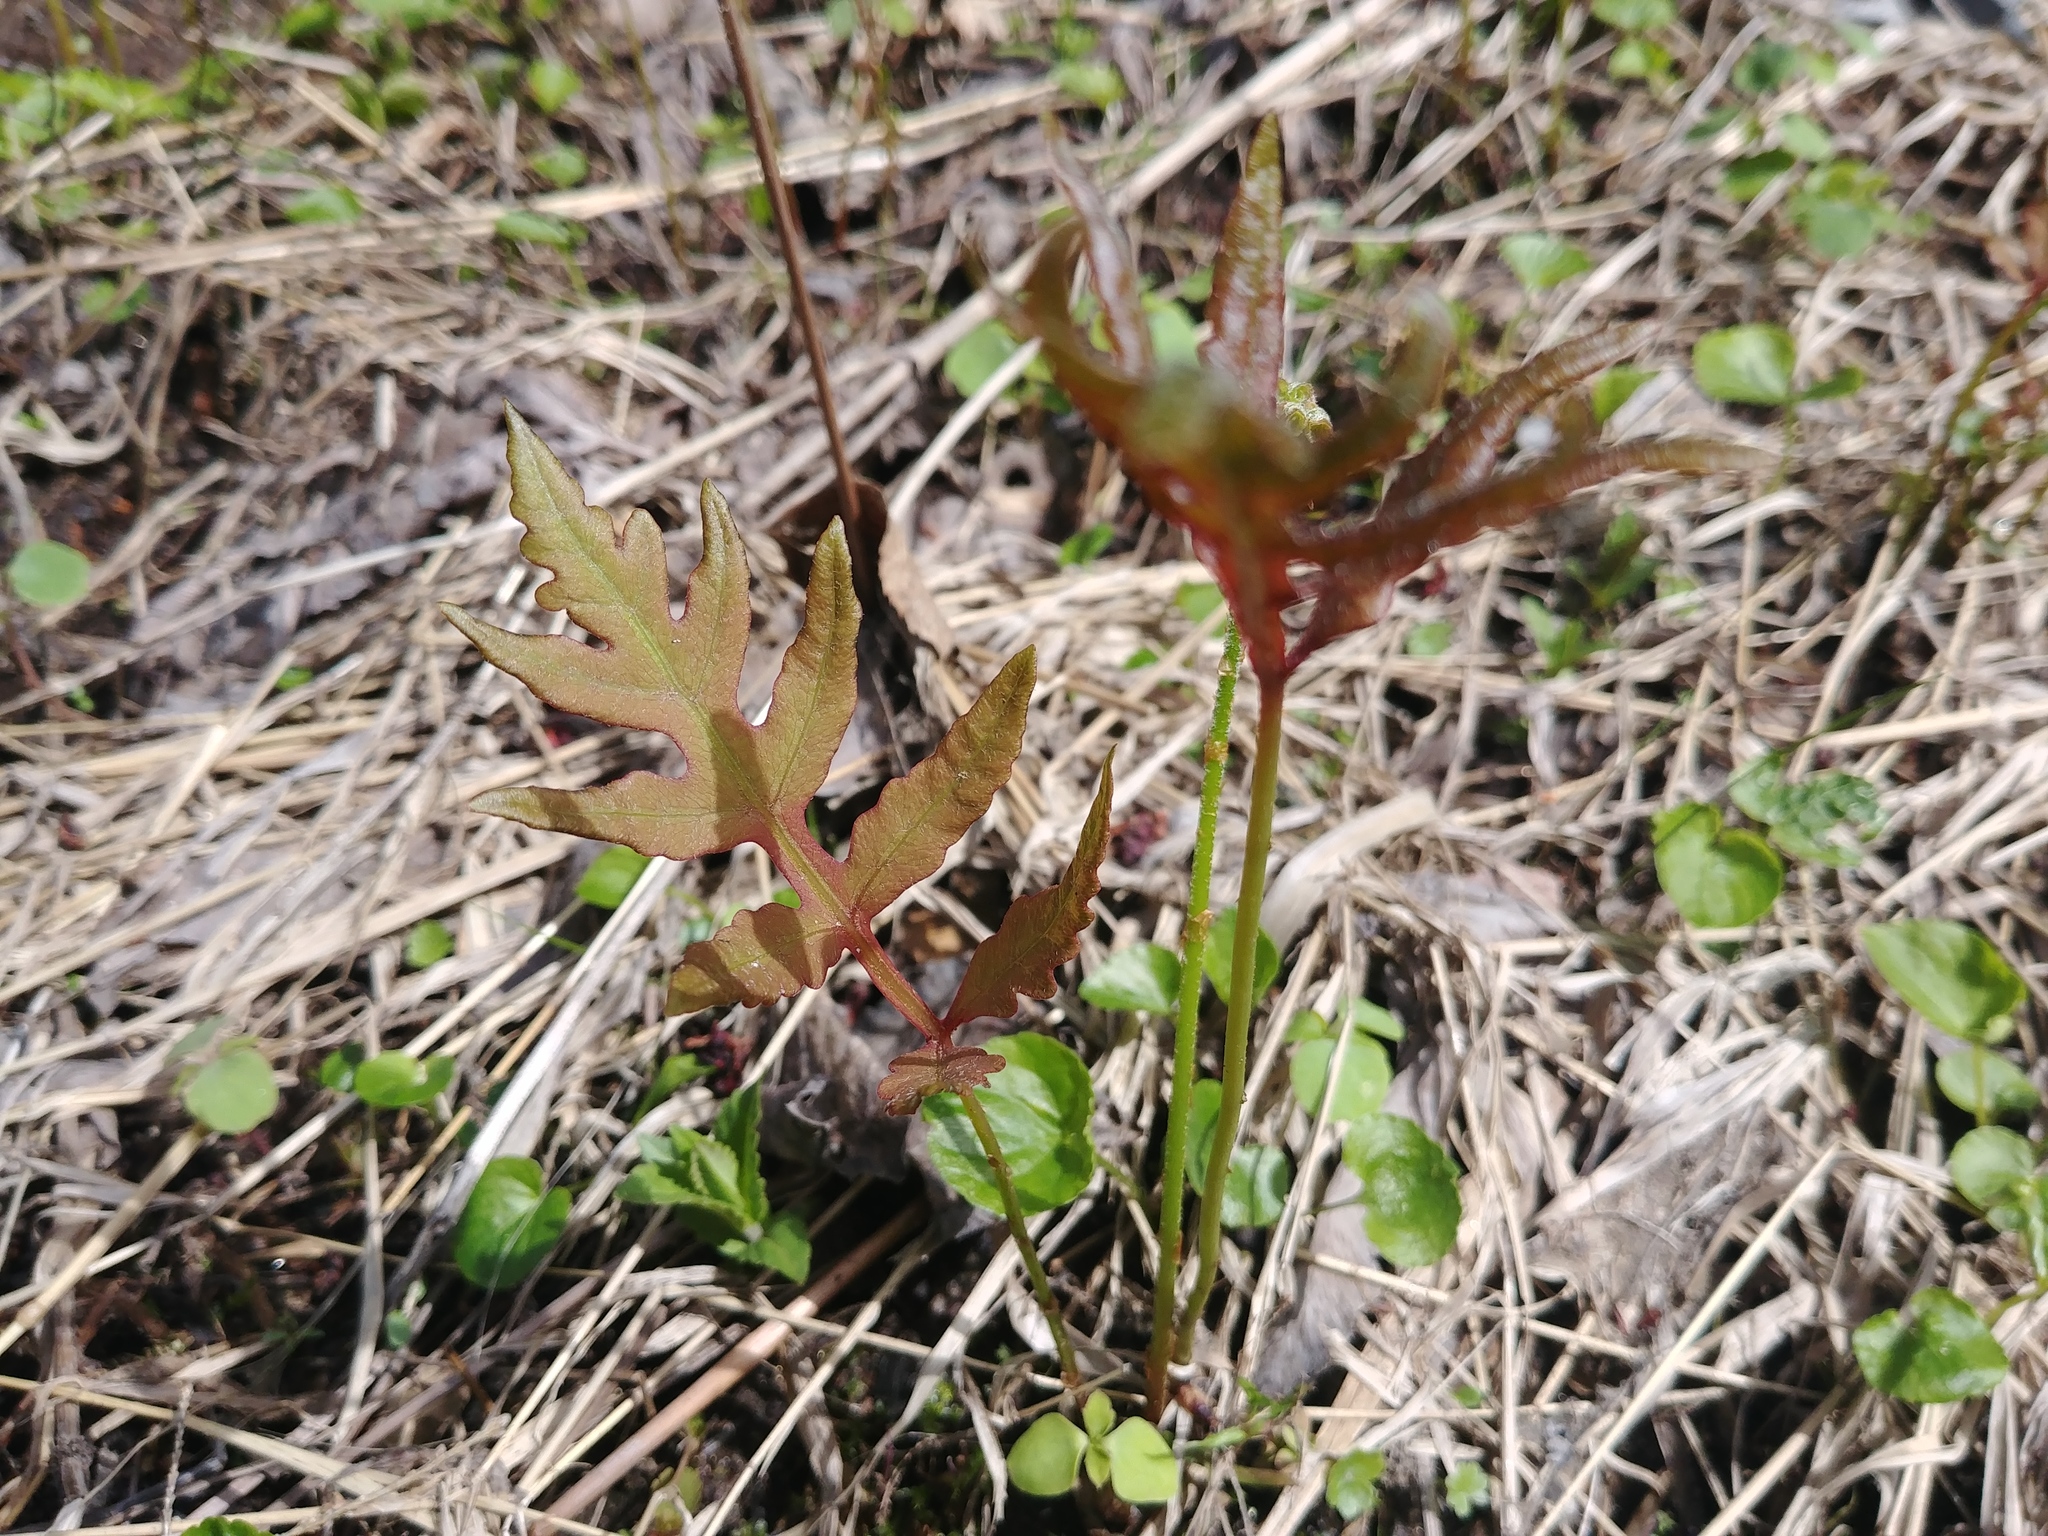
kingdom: Plantae
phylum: Tracheophyta
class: Polypodiopsida
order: Polypodiales
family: Onocleaceae
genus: Onoclea
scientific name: Onoclea sensibilis
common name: Sensitive fern
